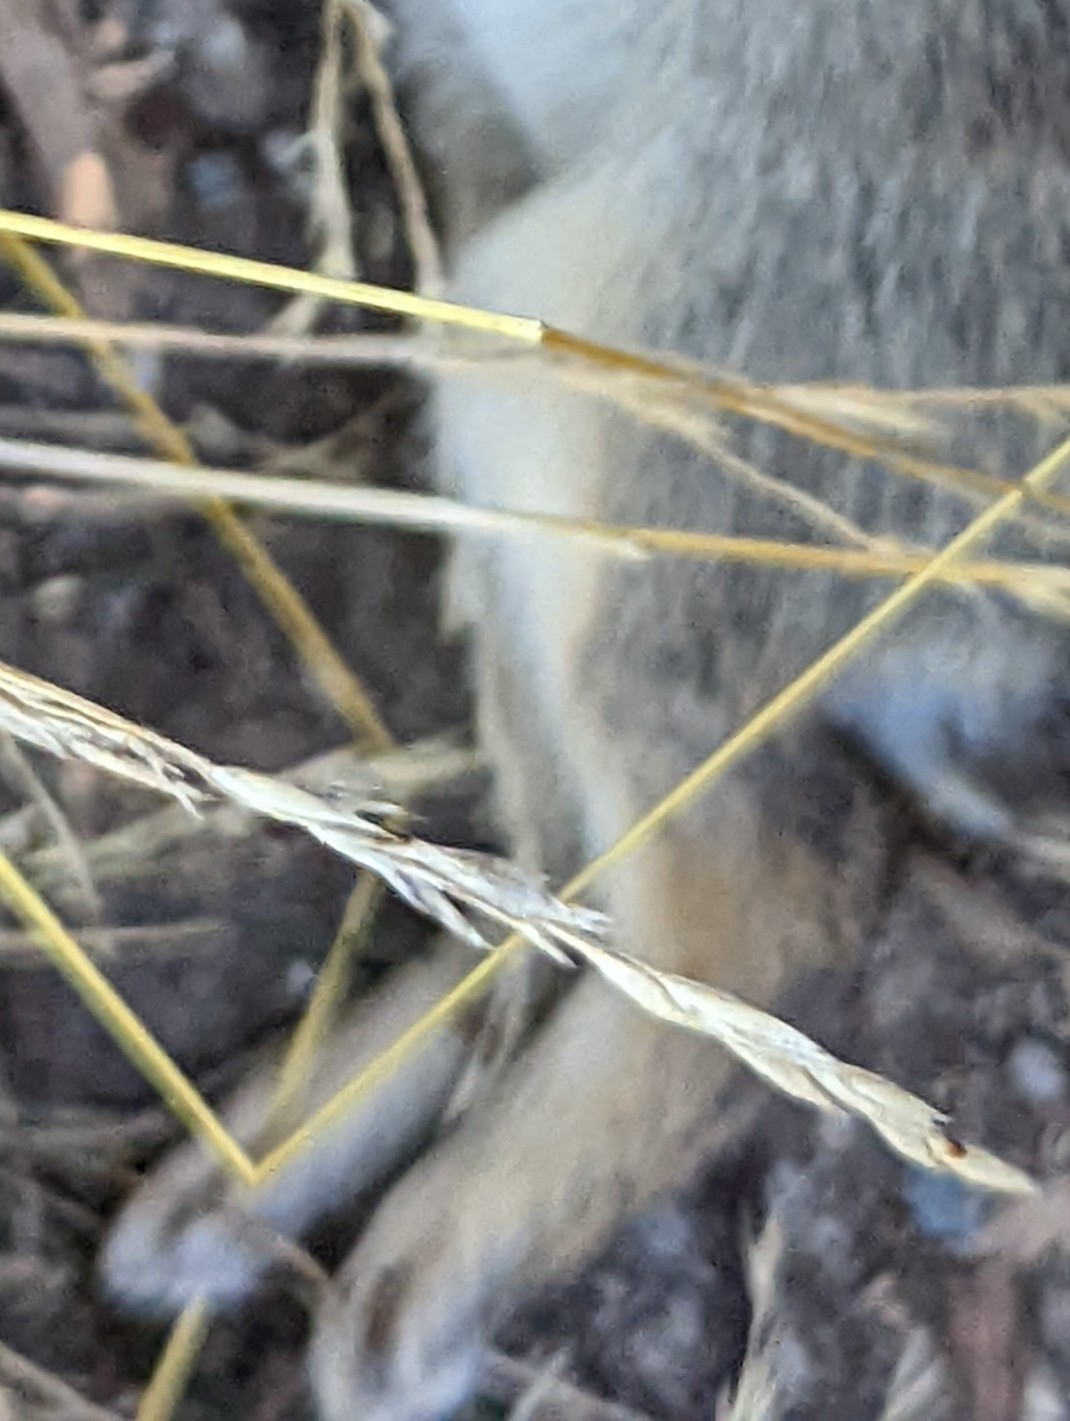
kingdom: Animalia
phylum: Chordata
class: Mammalia
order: Lagomorpha
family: Leporidae
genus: Sylvilagus
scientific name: Sylvilagus floridanus
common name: Eastern cottontail
